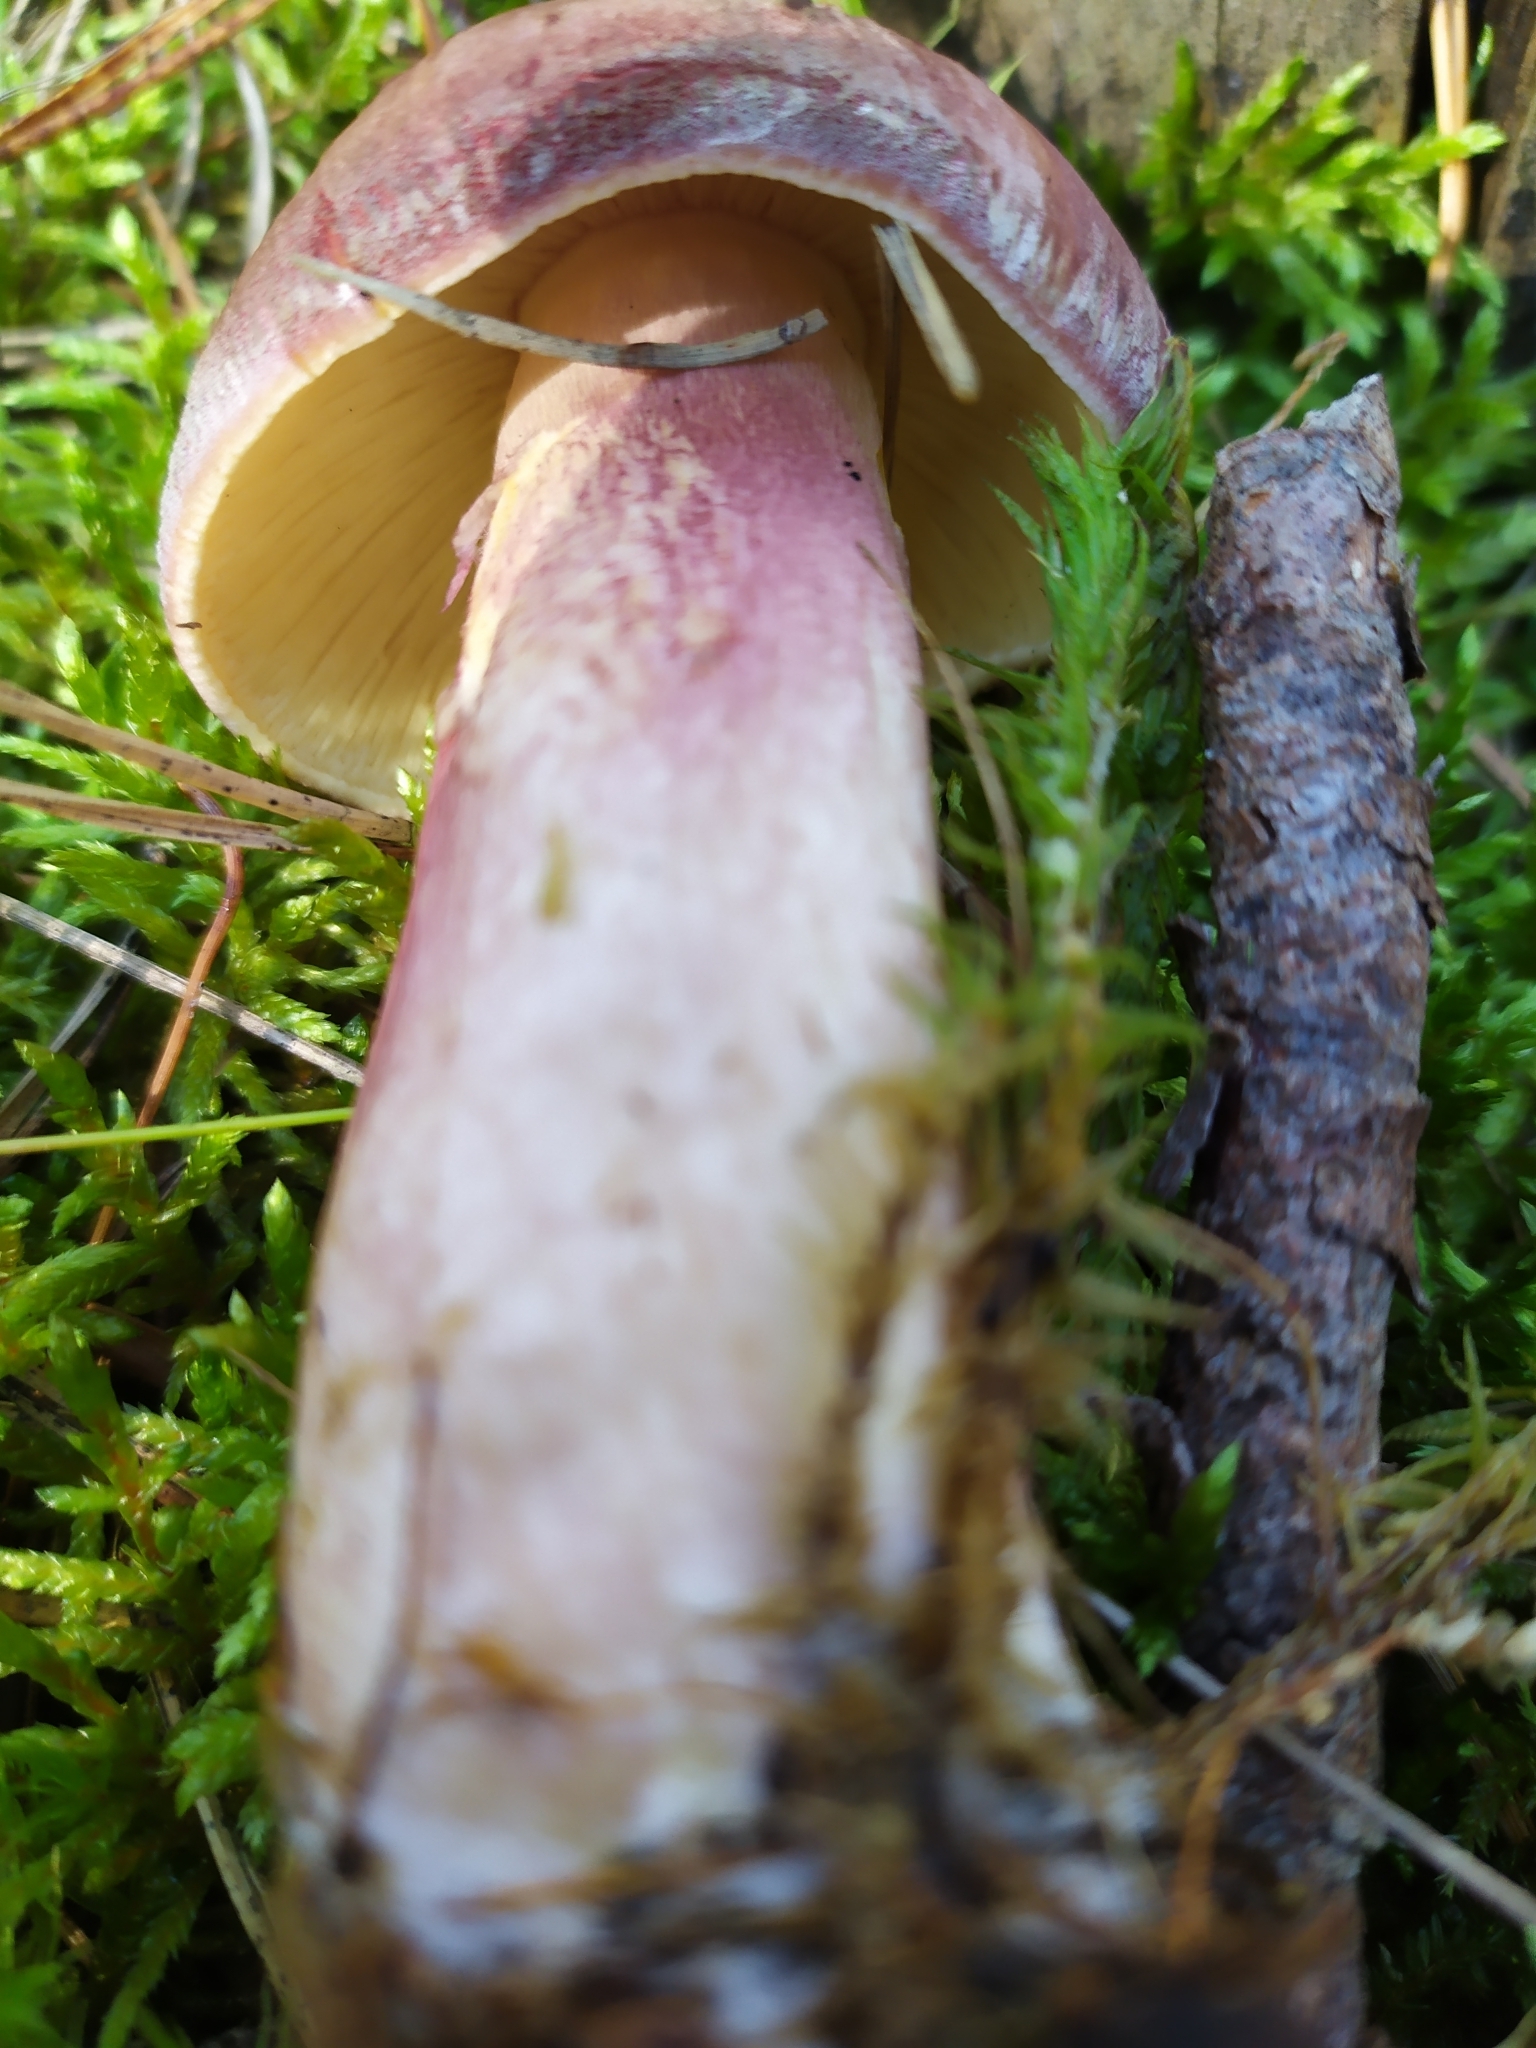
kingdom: Fungi
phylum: Basidiomycota
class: Agaricomycetes
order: Agaricales
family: Tricholomataceae
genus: Tricholomopsis
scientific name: Tricholomopsis rutilans
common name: Plums and custard
